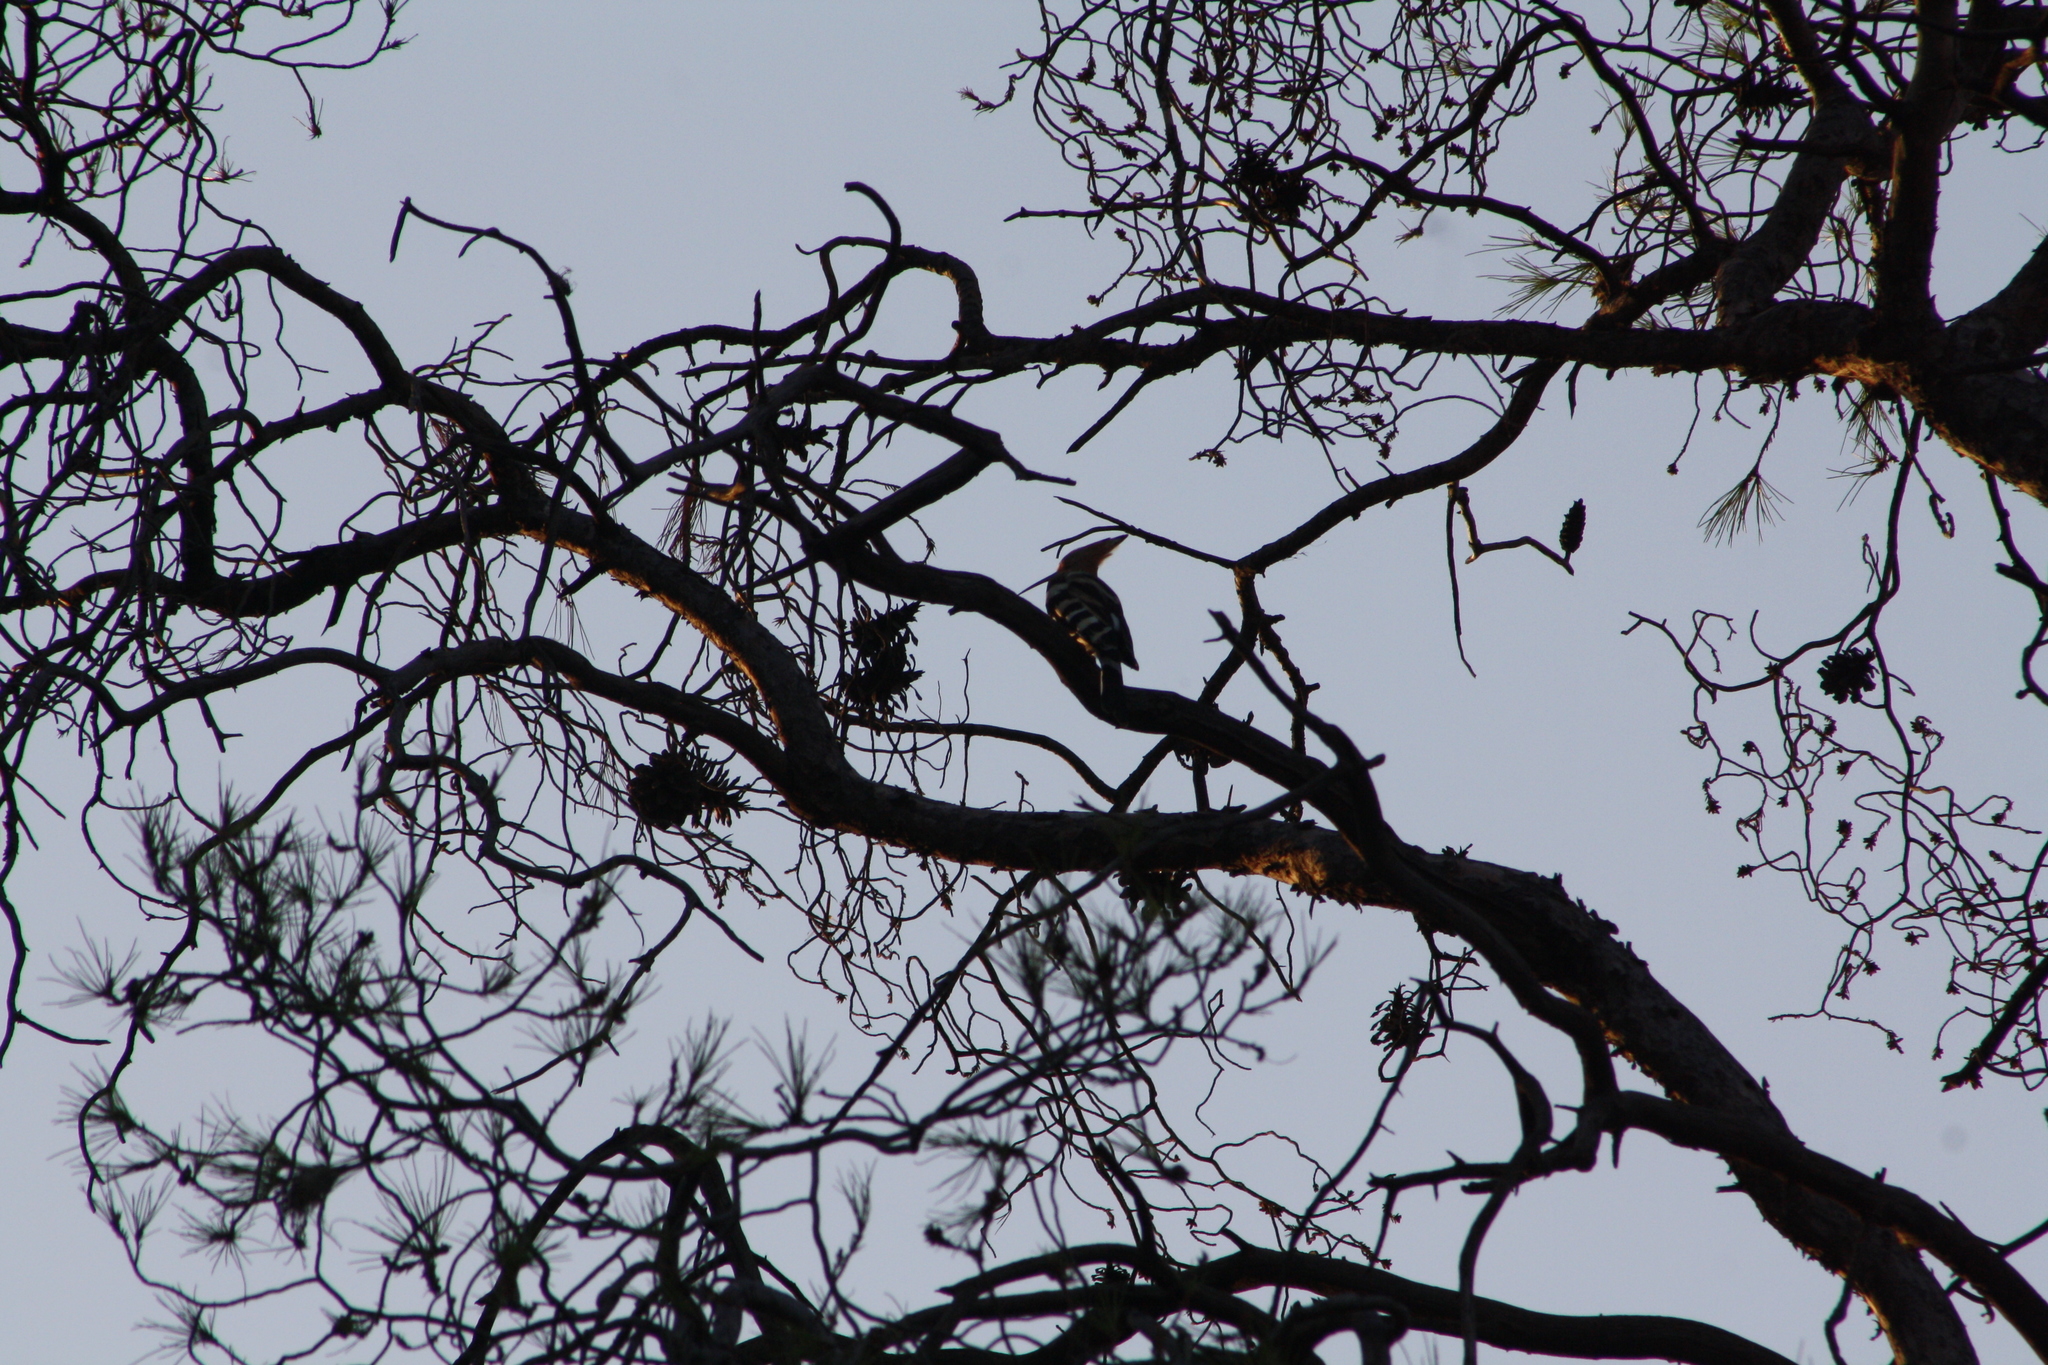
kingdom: Animalia
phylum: Chordata
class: Aves
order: Bucerotiformes
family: Upupidae
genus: Upupa
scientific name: Upupa epops
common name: Eurasian hoopoe
